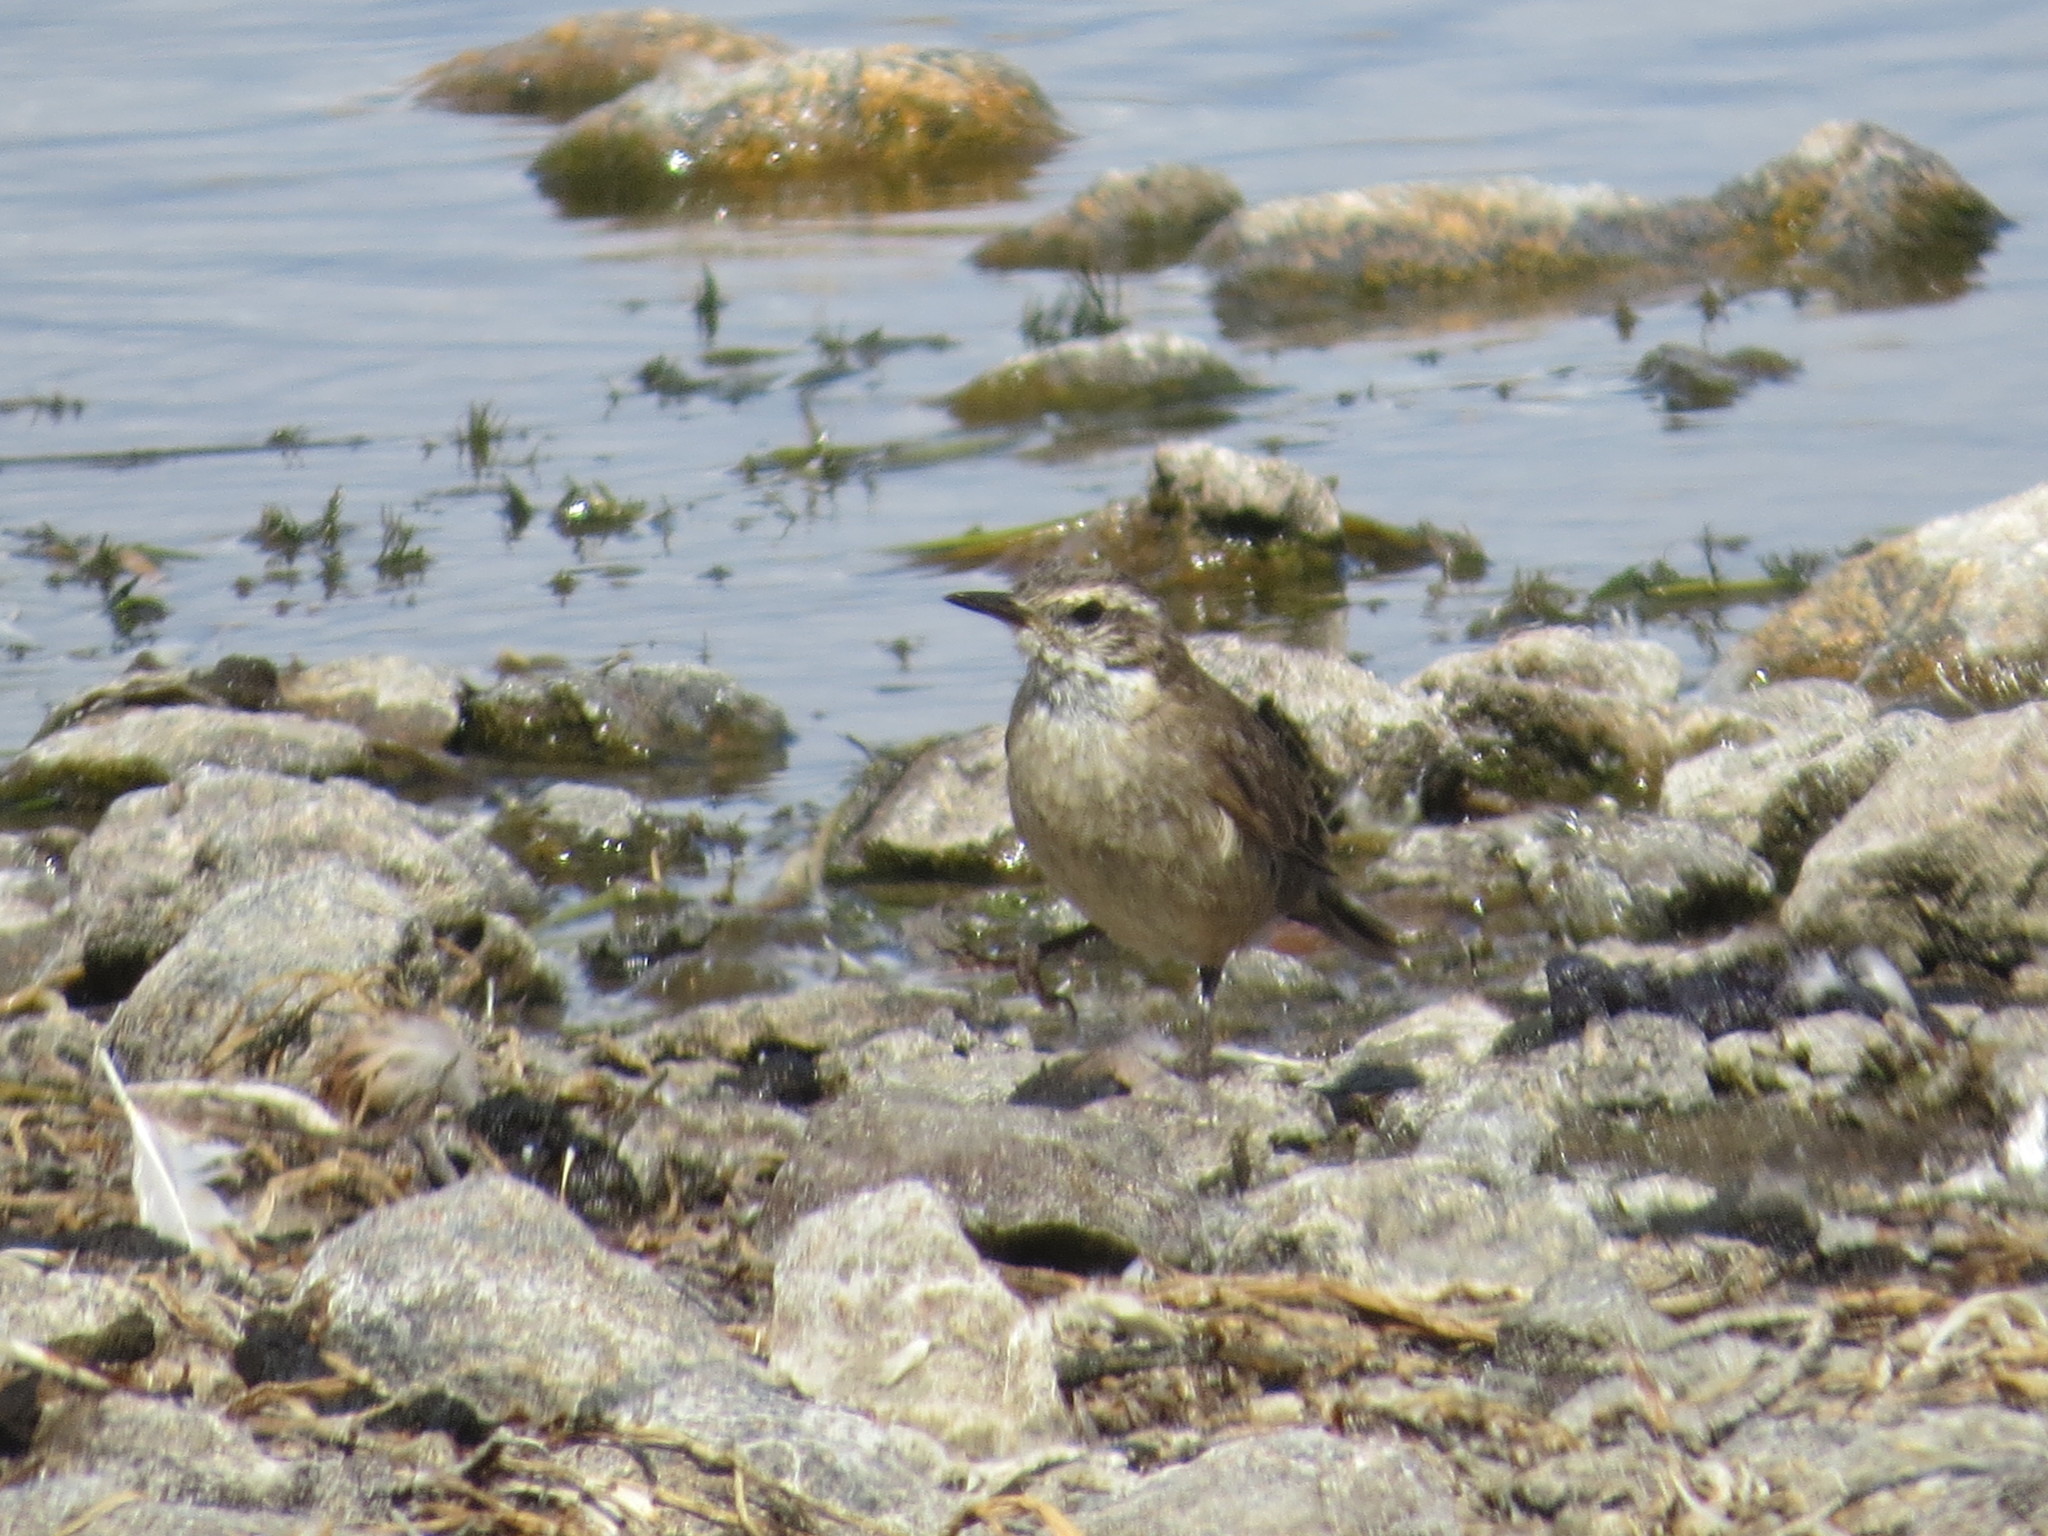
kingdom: Animalia
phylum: Chordata
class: Aves
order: Passeriformes
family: Furnariidae
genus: Cinclodes
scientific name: Cinclodes fuscus
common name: Buff-winged cinclodes
